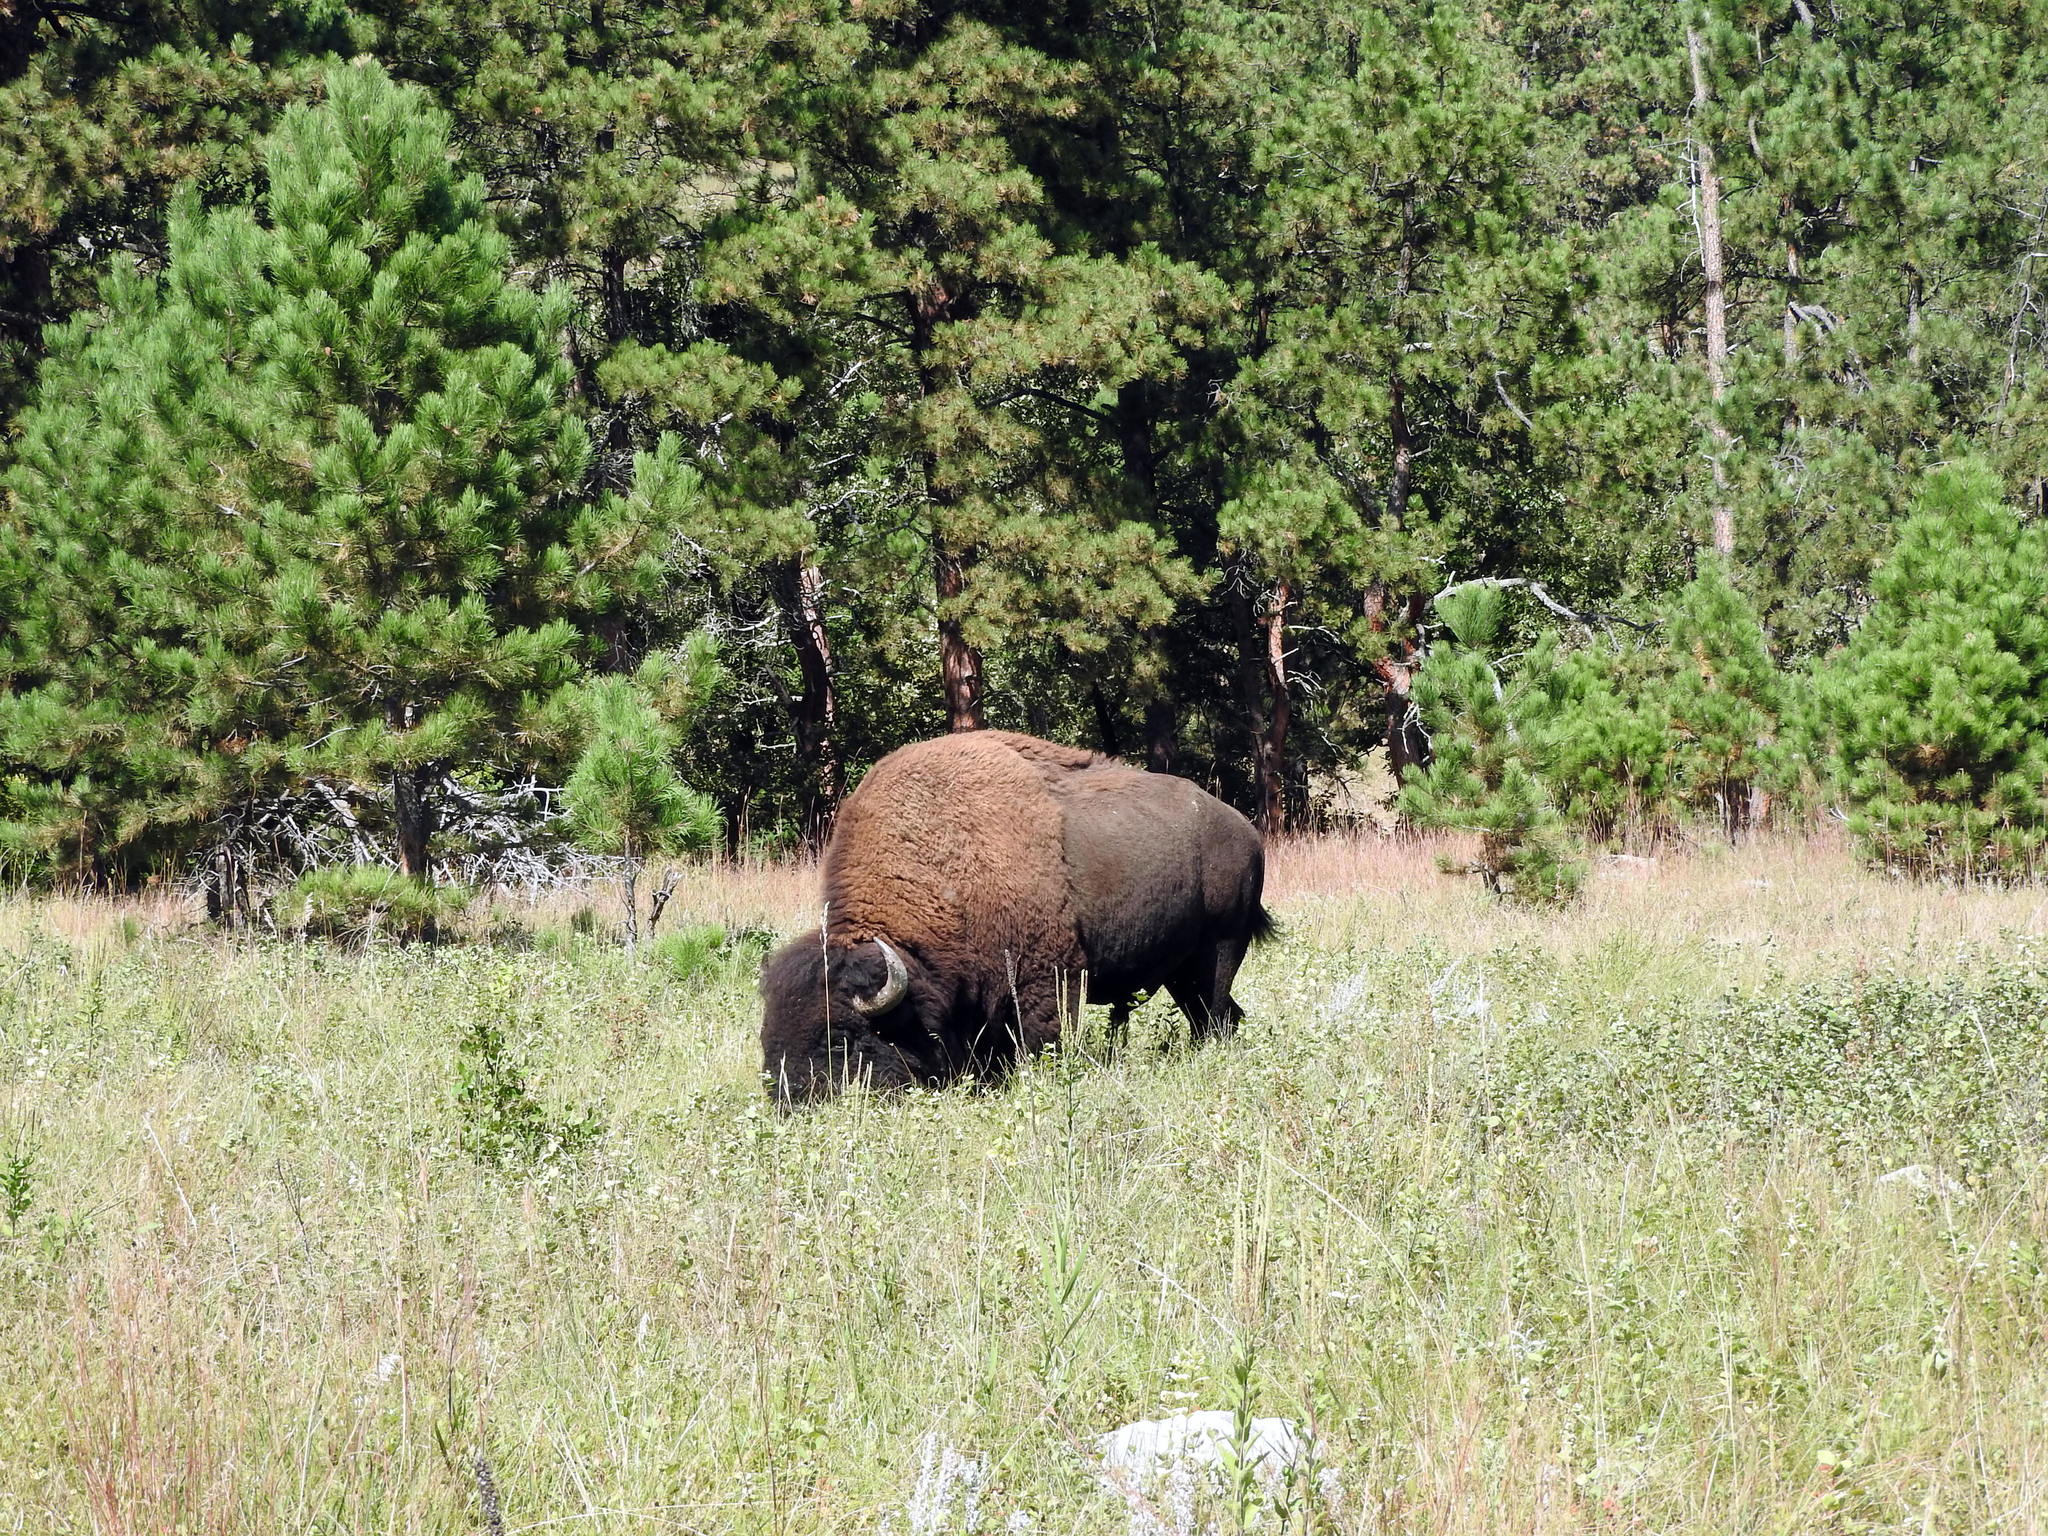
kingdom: Animalia
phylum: Chordata
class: Mammalia
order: Artiodactyla
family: Bovidae
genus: Bison
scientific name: Bison bison
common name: American bison
